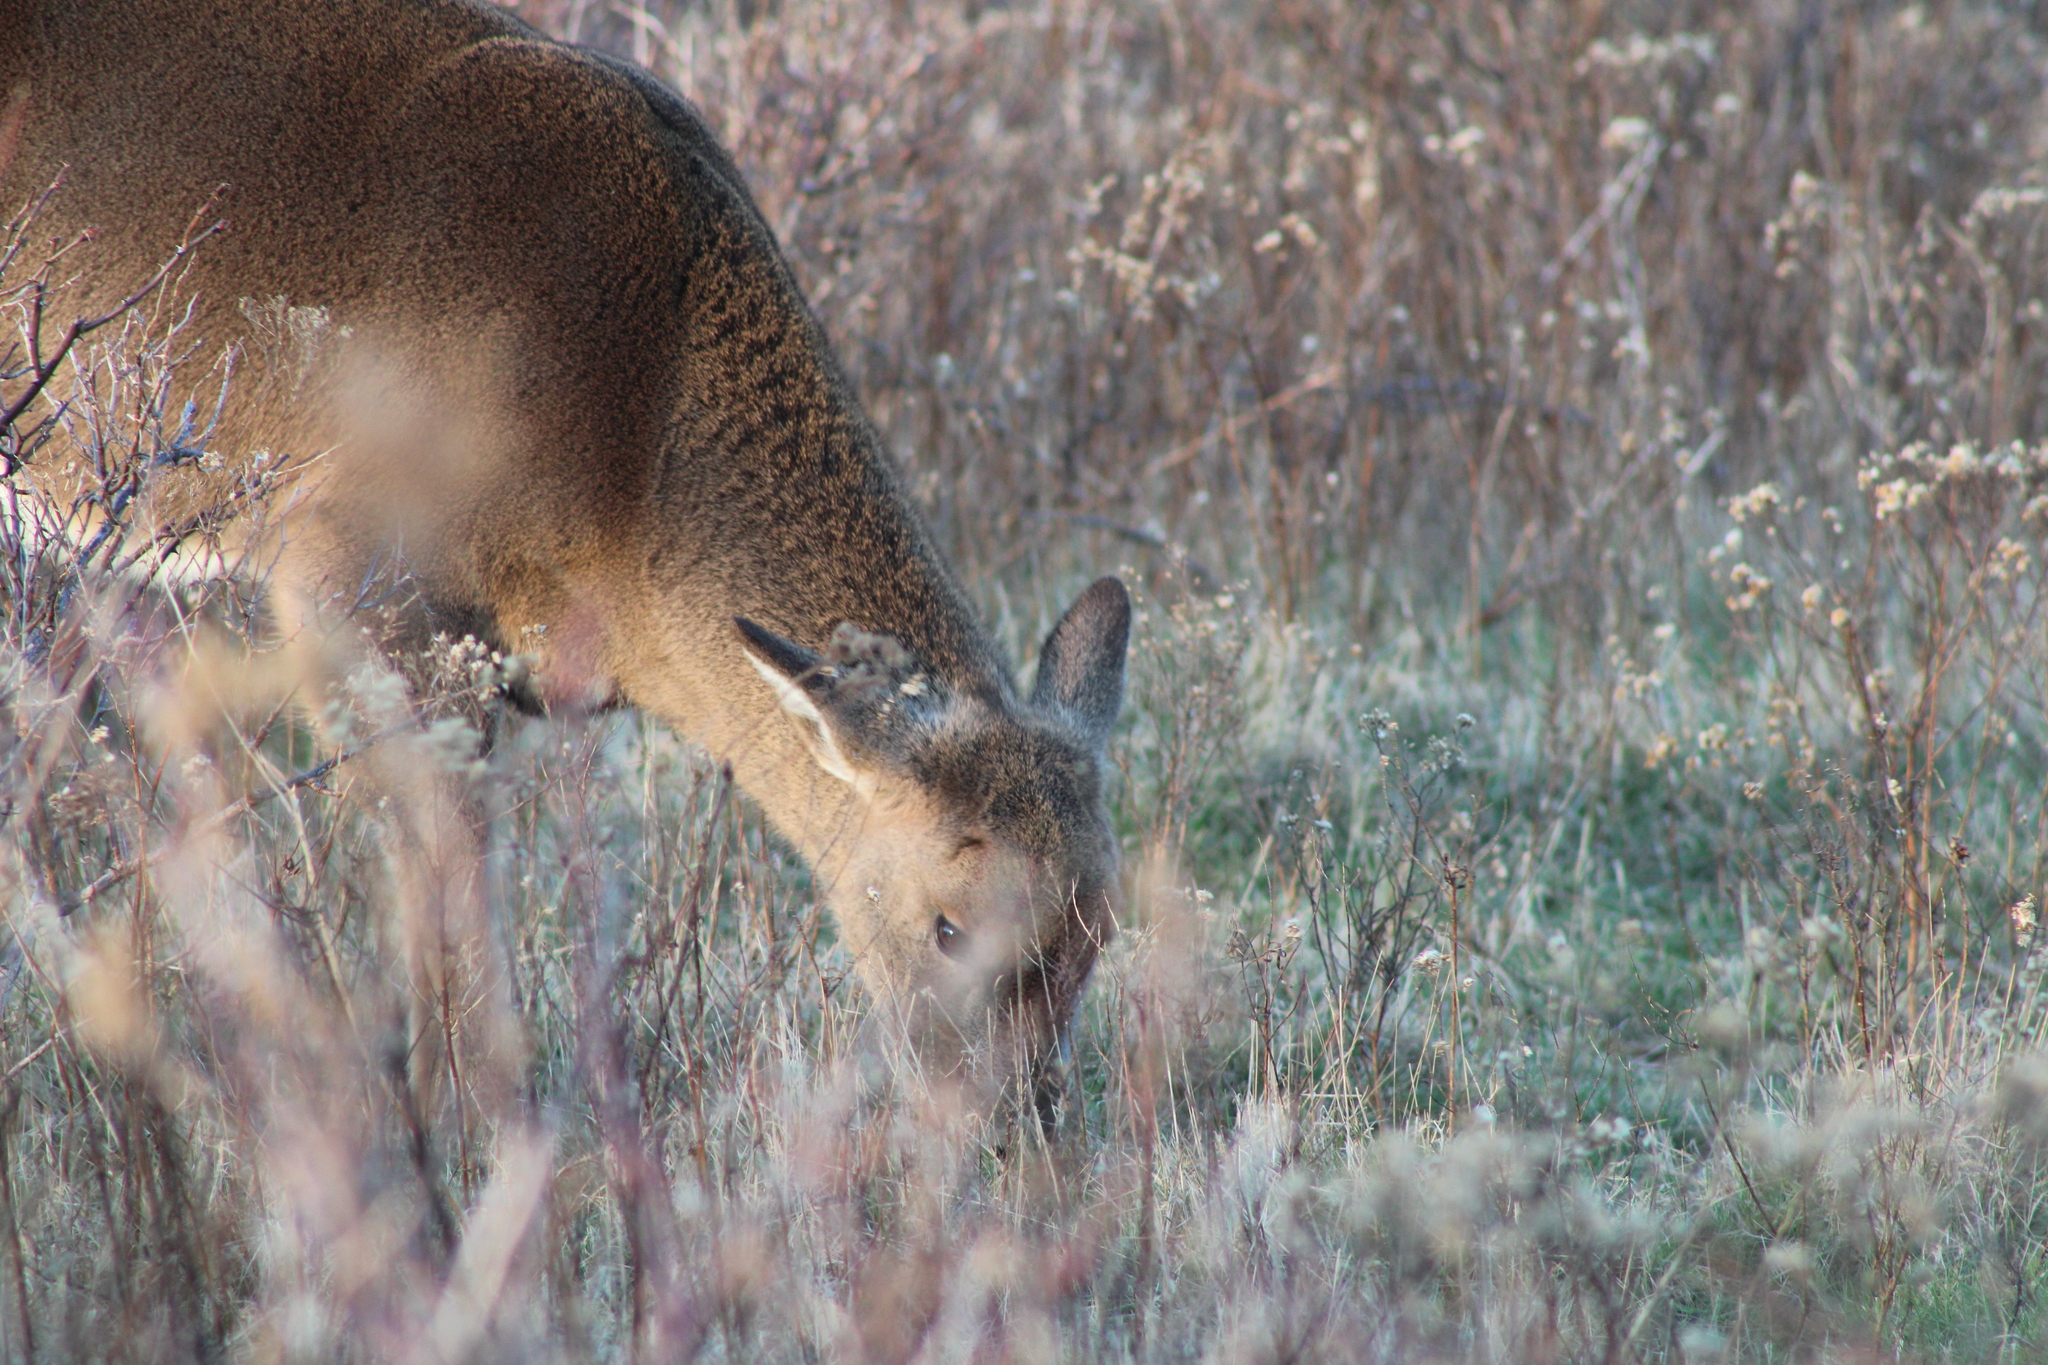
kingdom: Animalia
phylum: Chordata
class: Mammalia
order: Artiodactyla
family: Cervidae
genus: Odocoileus
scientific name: Odocoileus virginianus
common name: White-tailed deer
